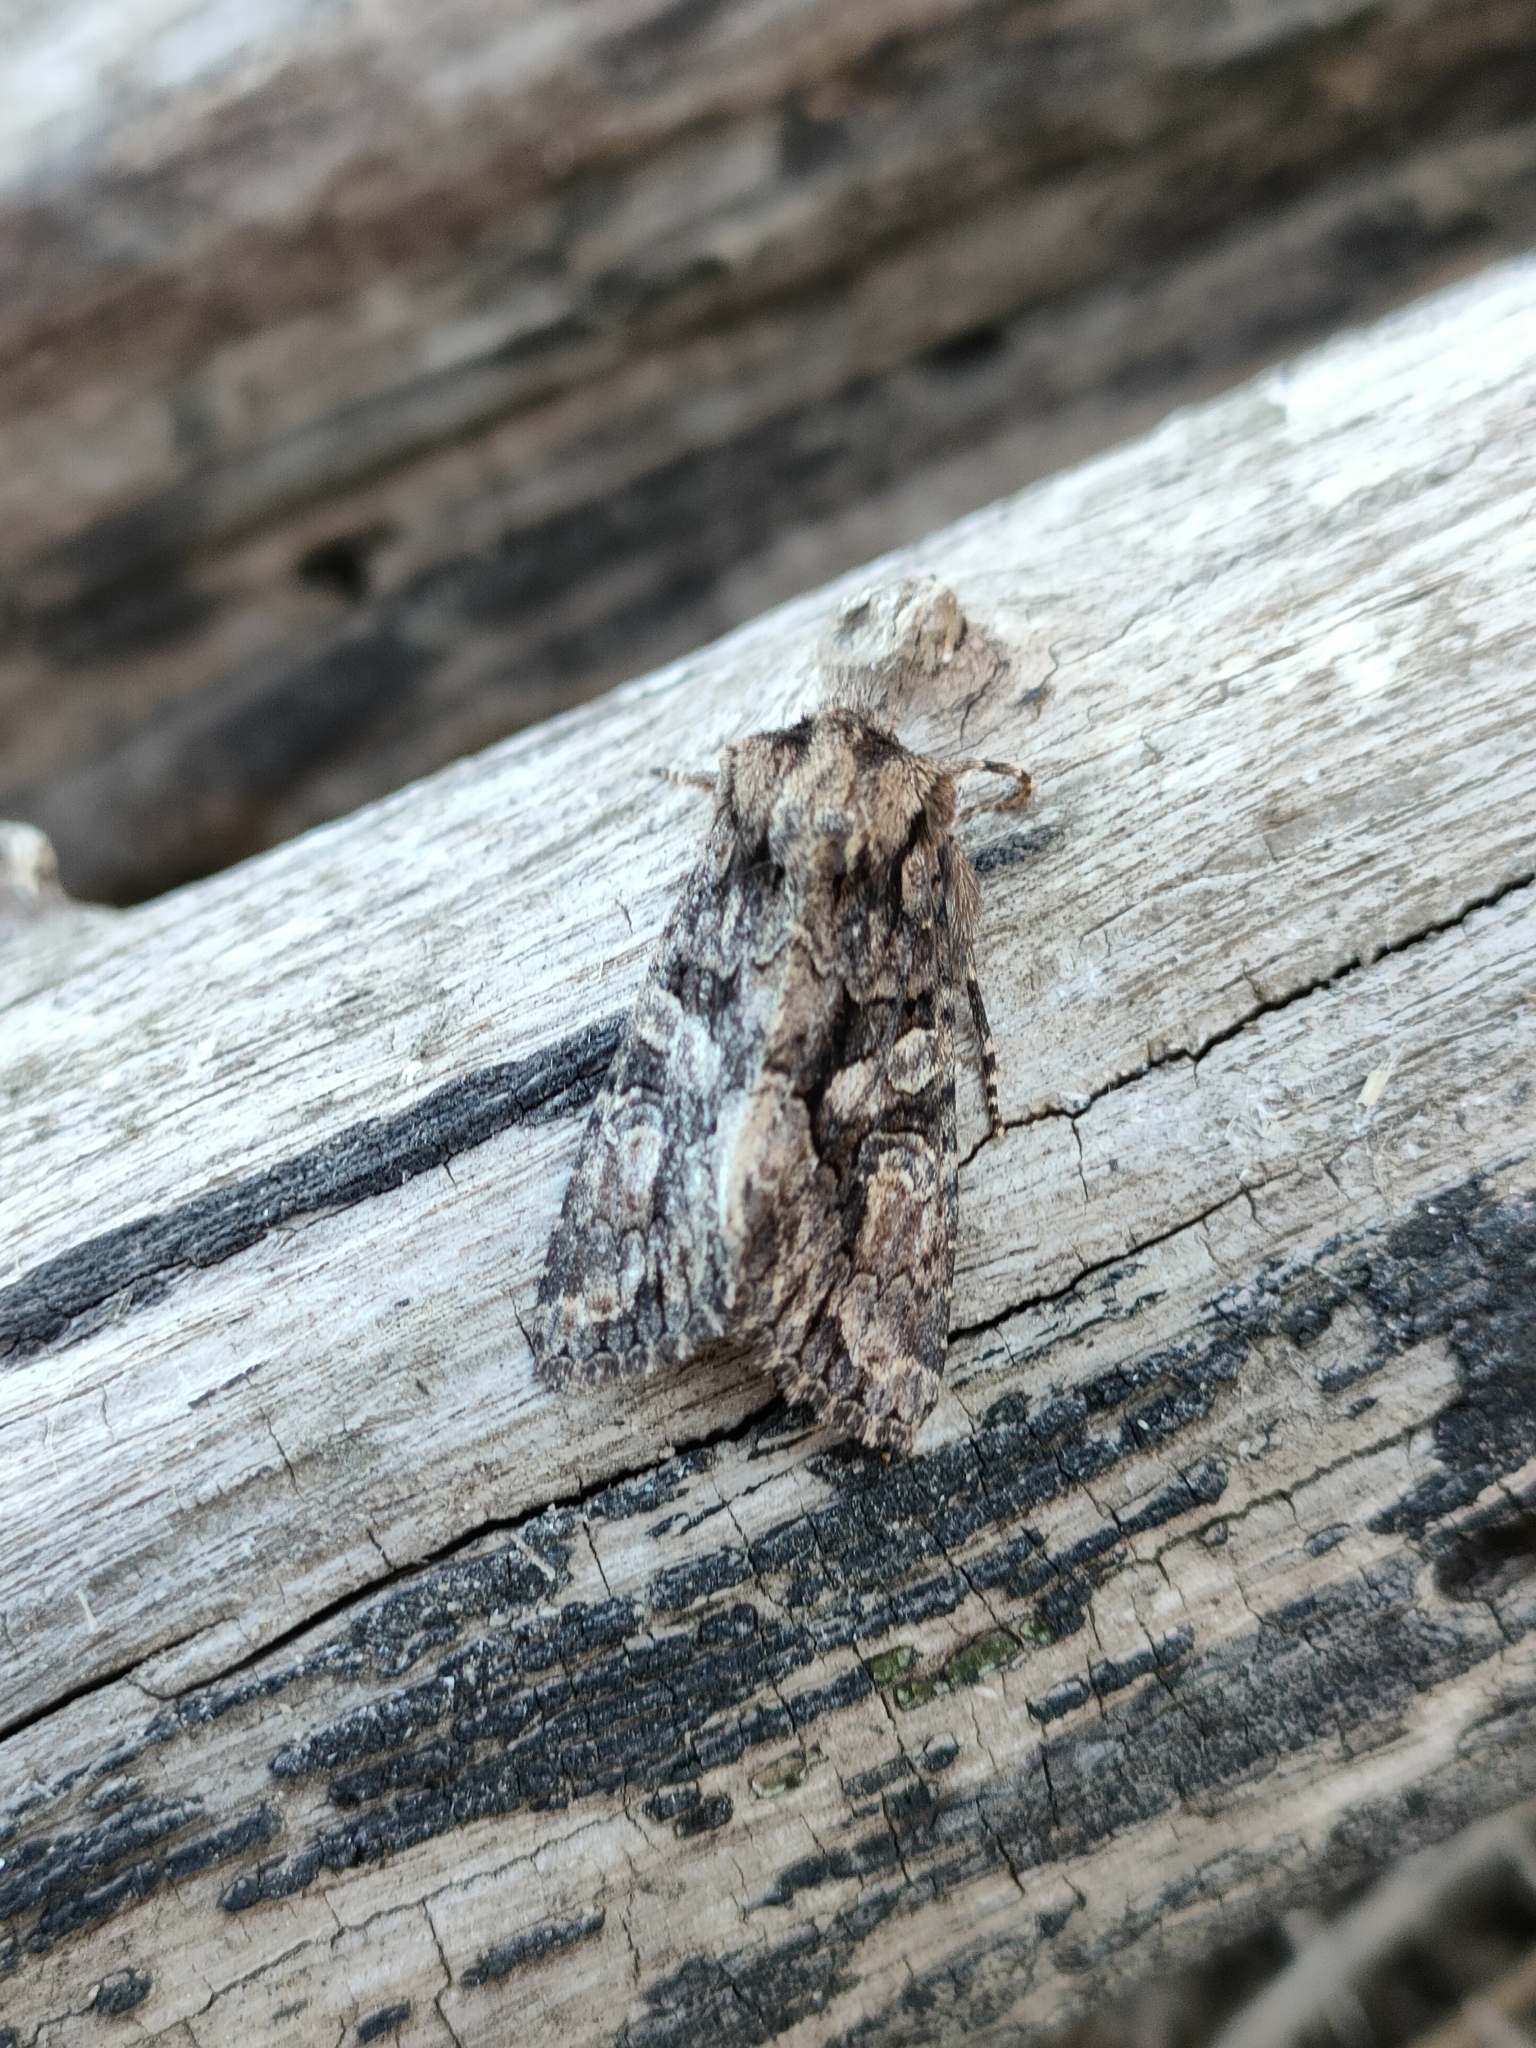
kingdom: Animalia
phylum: Arthropoda
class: Insecta
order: Lepidoptera
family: Noctuidae
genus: Dryobotodes
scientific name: Dryobotodes eremita
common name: Brindled green
